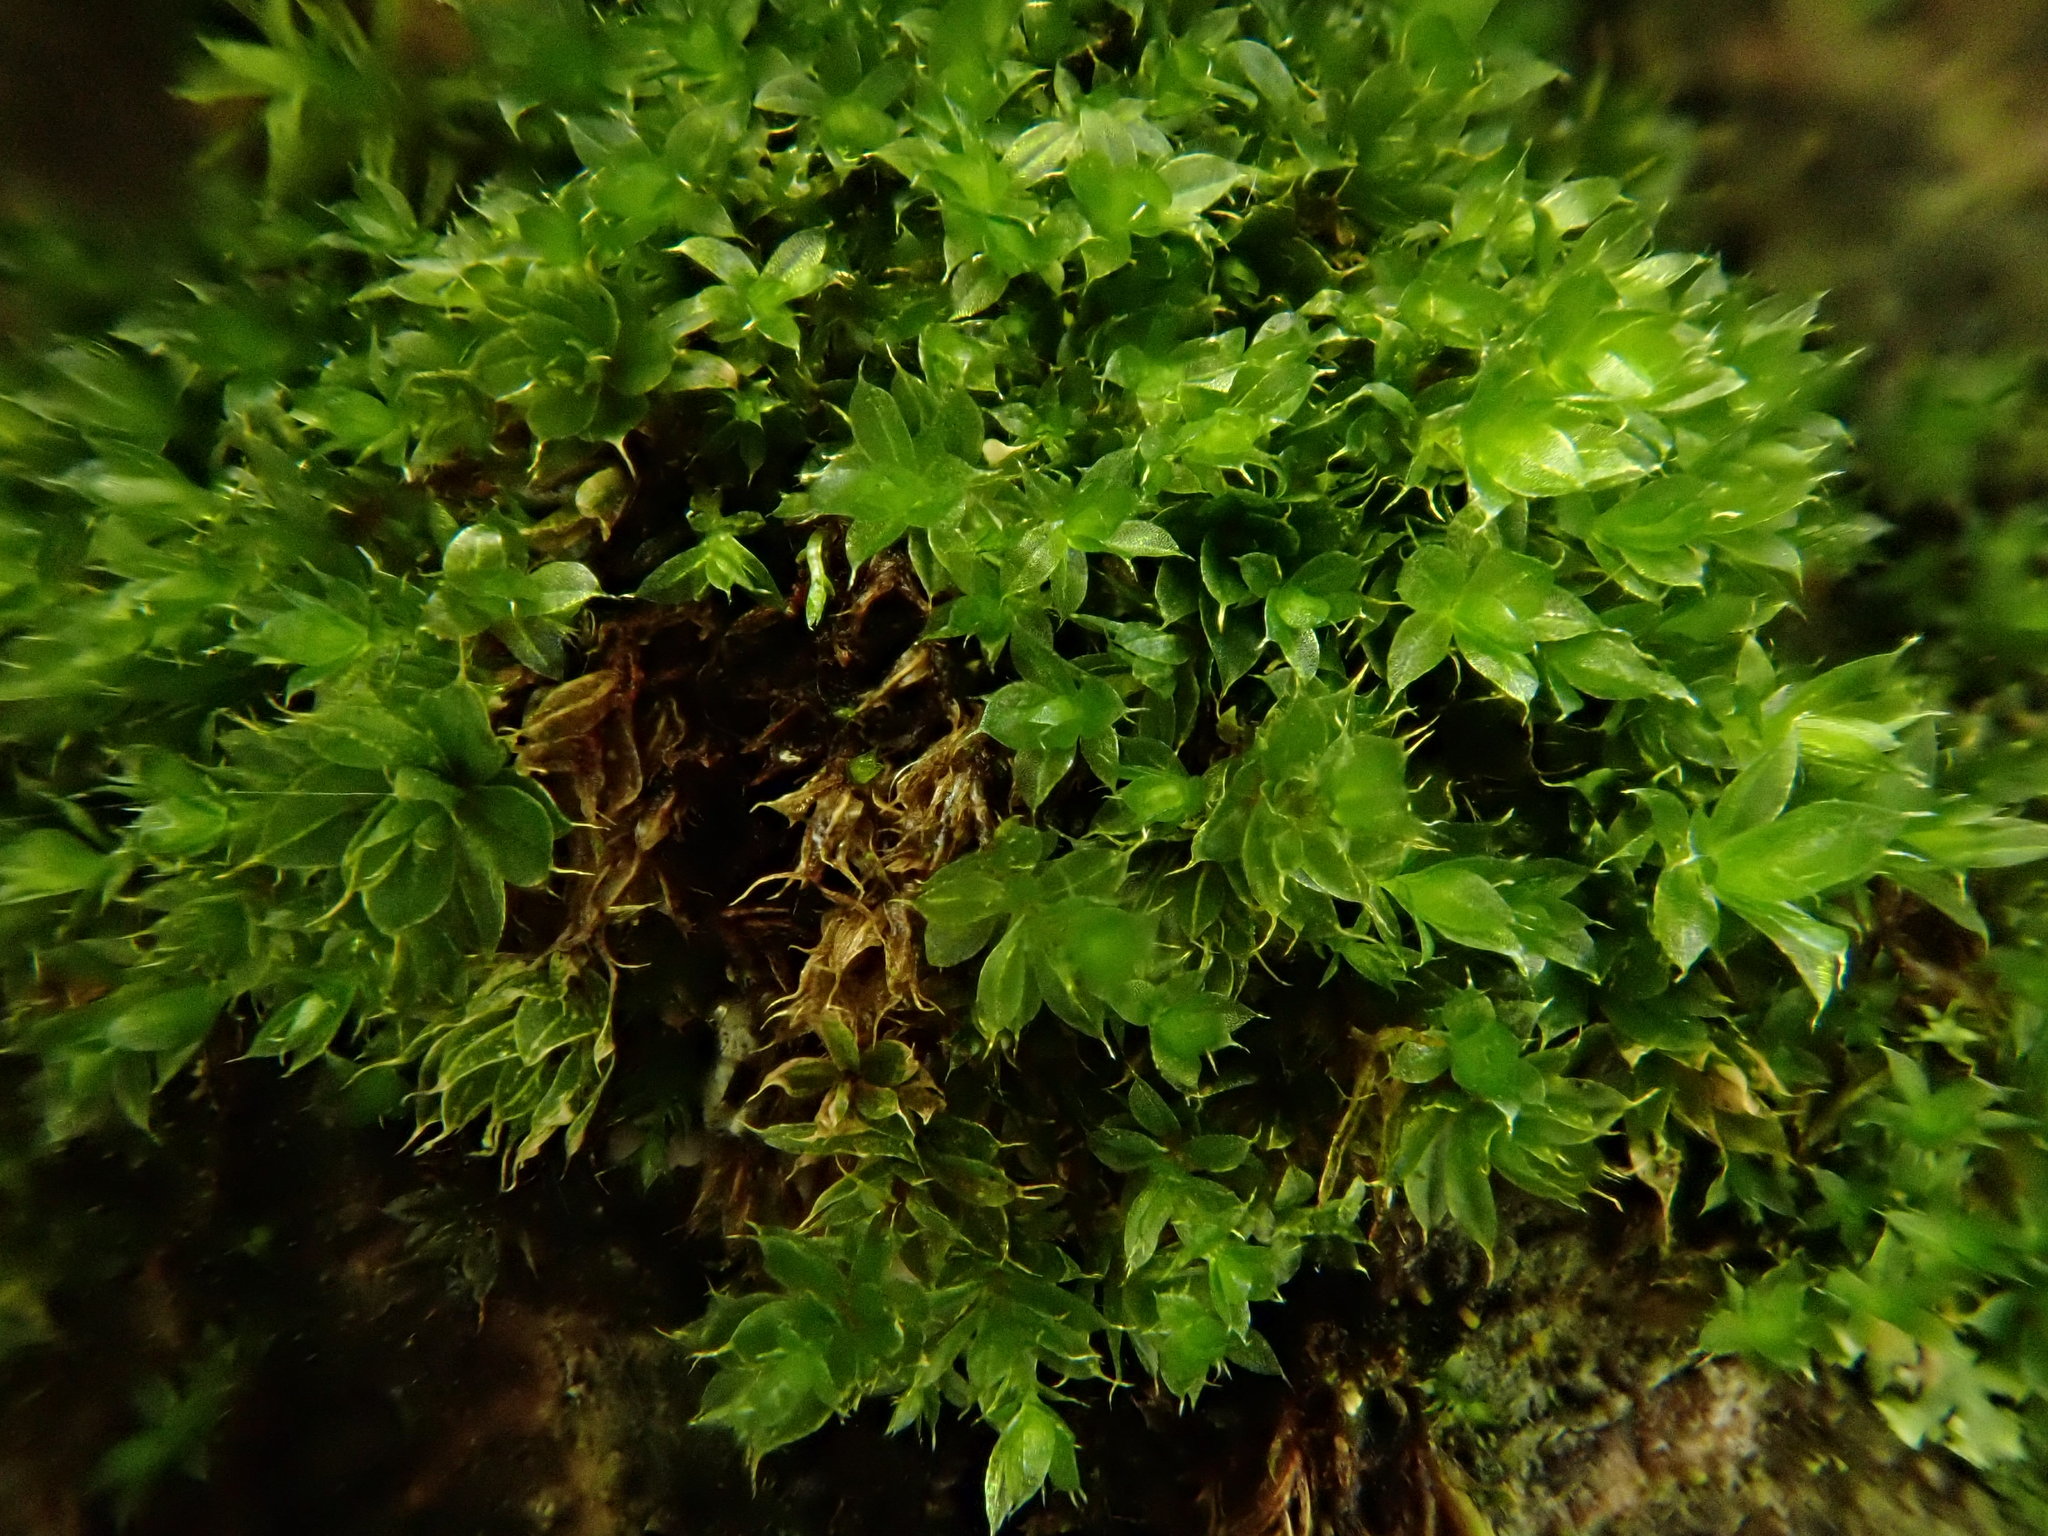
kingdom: Plantae
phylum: Bryophyta
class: Bryopsida
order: Bryales
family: Bryaceae
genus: Rosulabryum
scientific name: Rosulabryum capillare
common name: Capillary thread-moss
